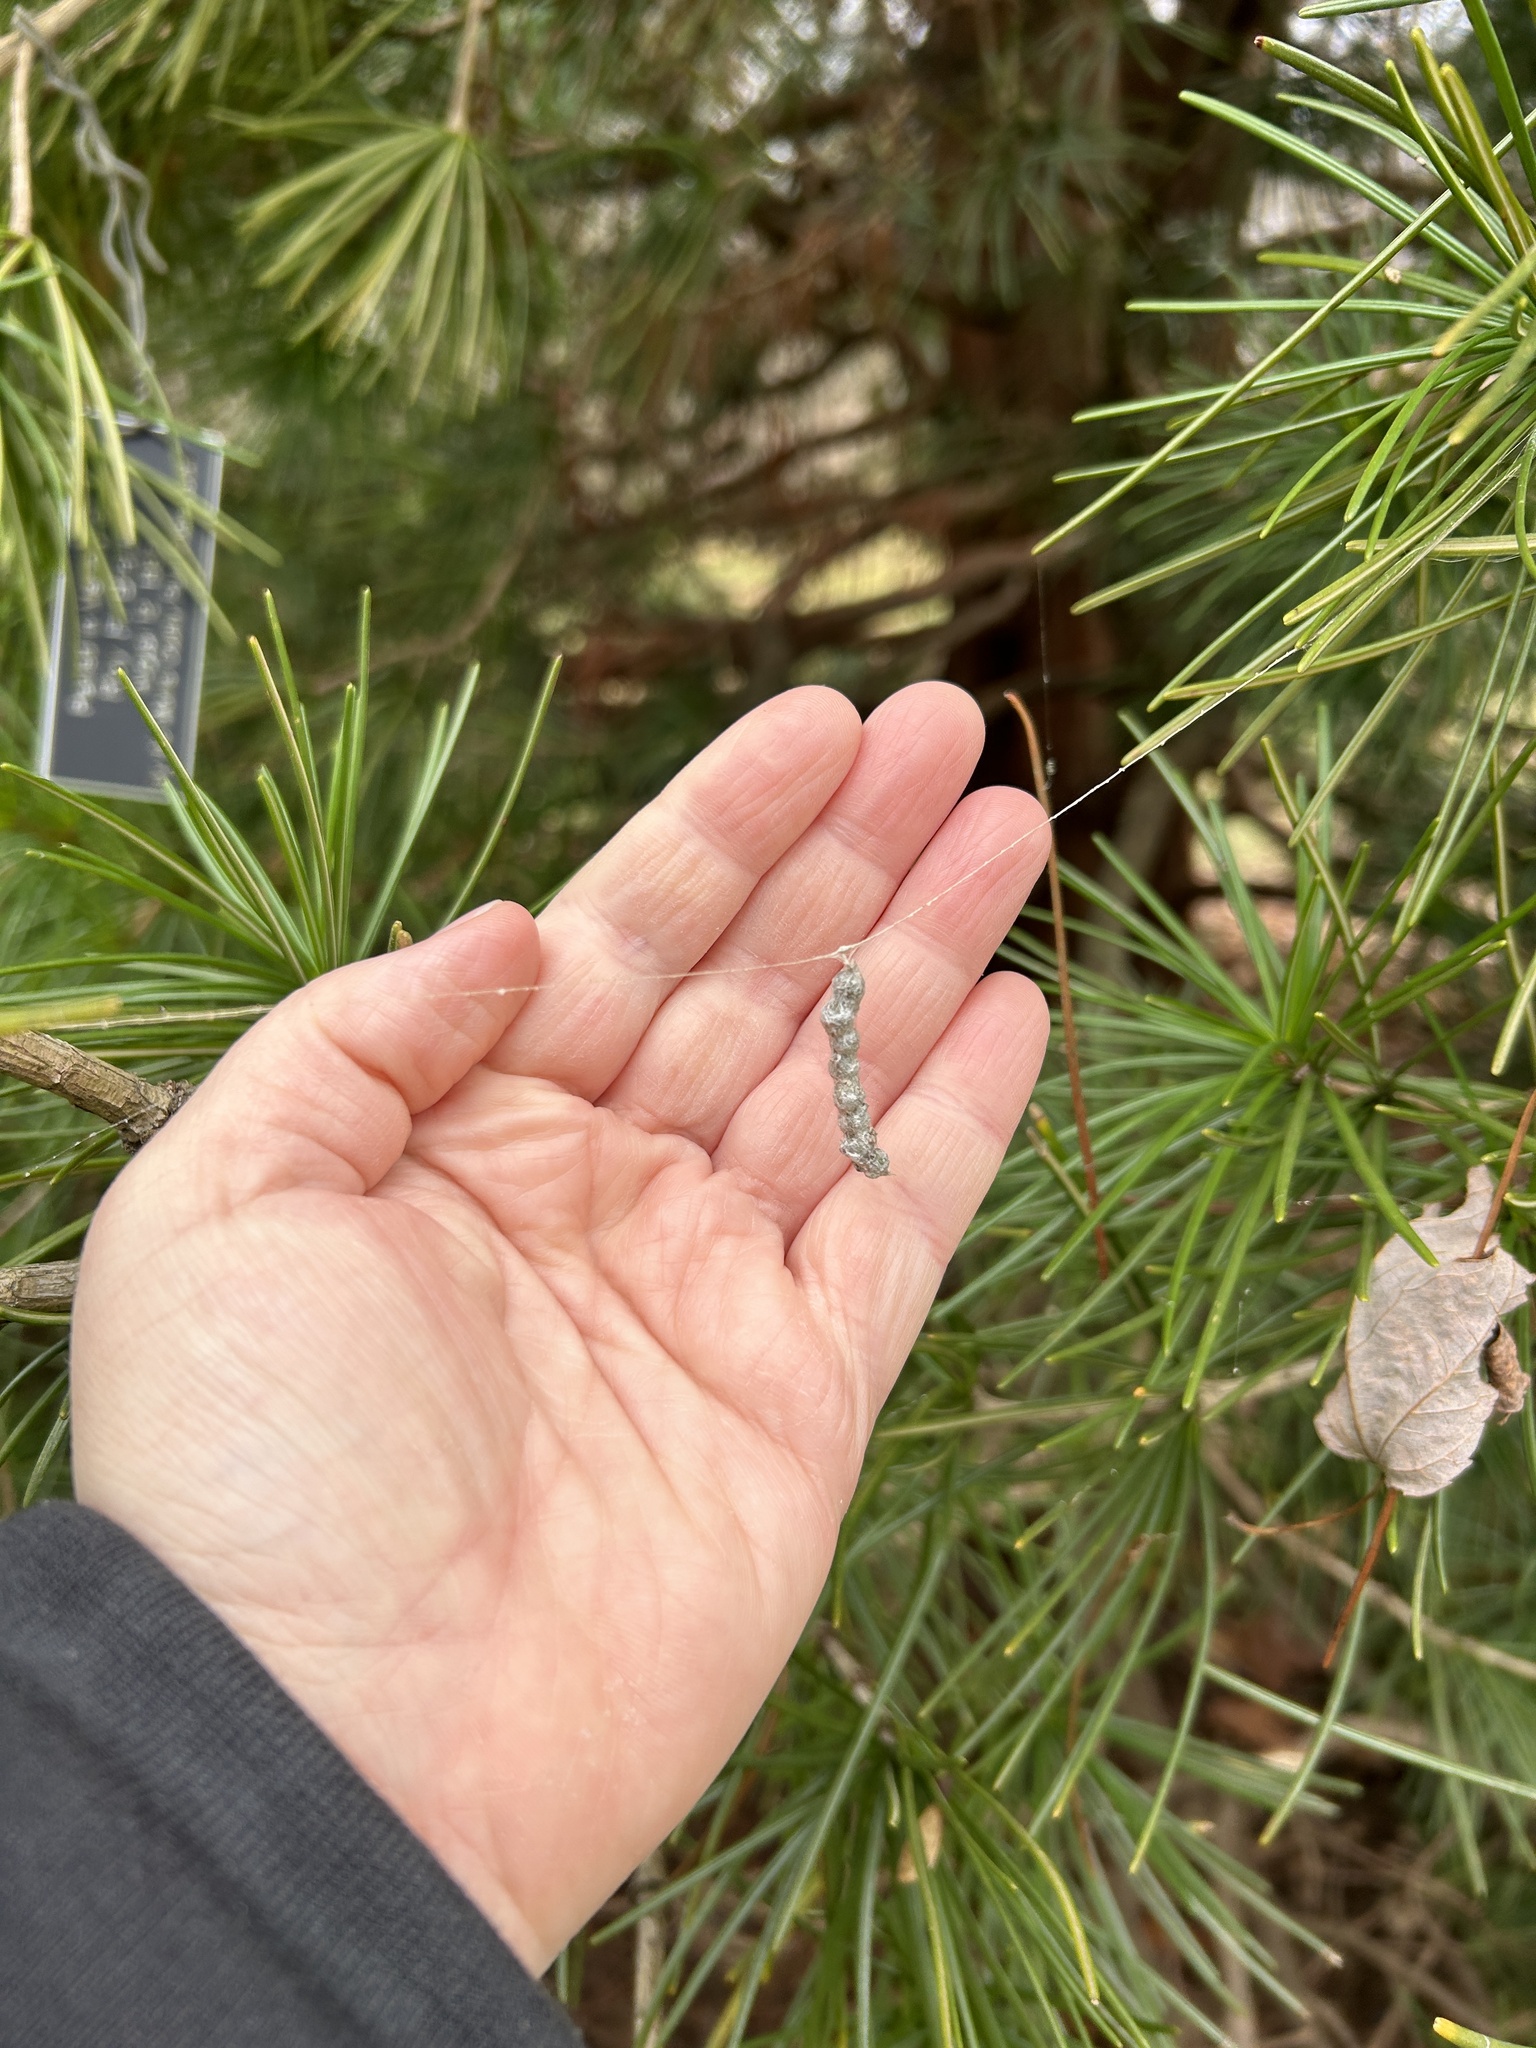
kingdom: Animalia
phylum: Arthropoda
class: Arachnida
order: Araneae
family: Araneidae
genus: Mecynogea
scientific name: Mecynogea lemniscata
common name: Orb weavers
